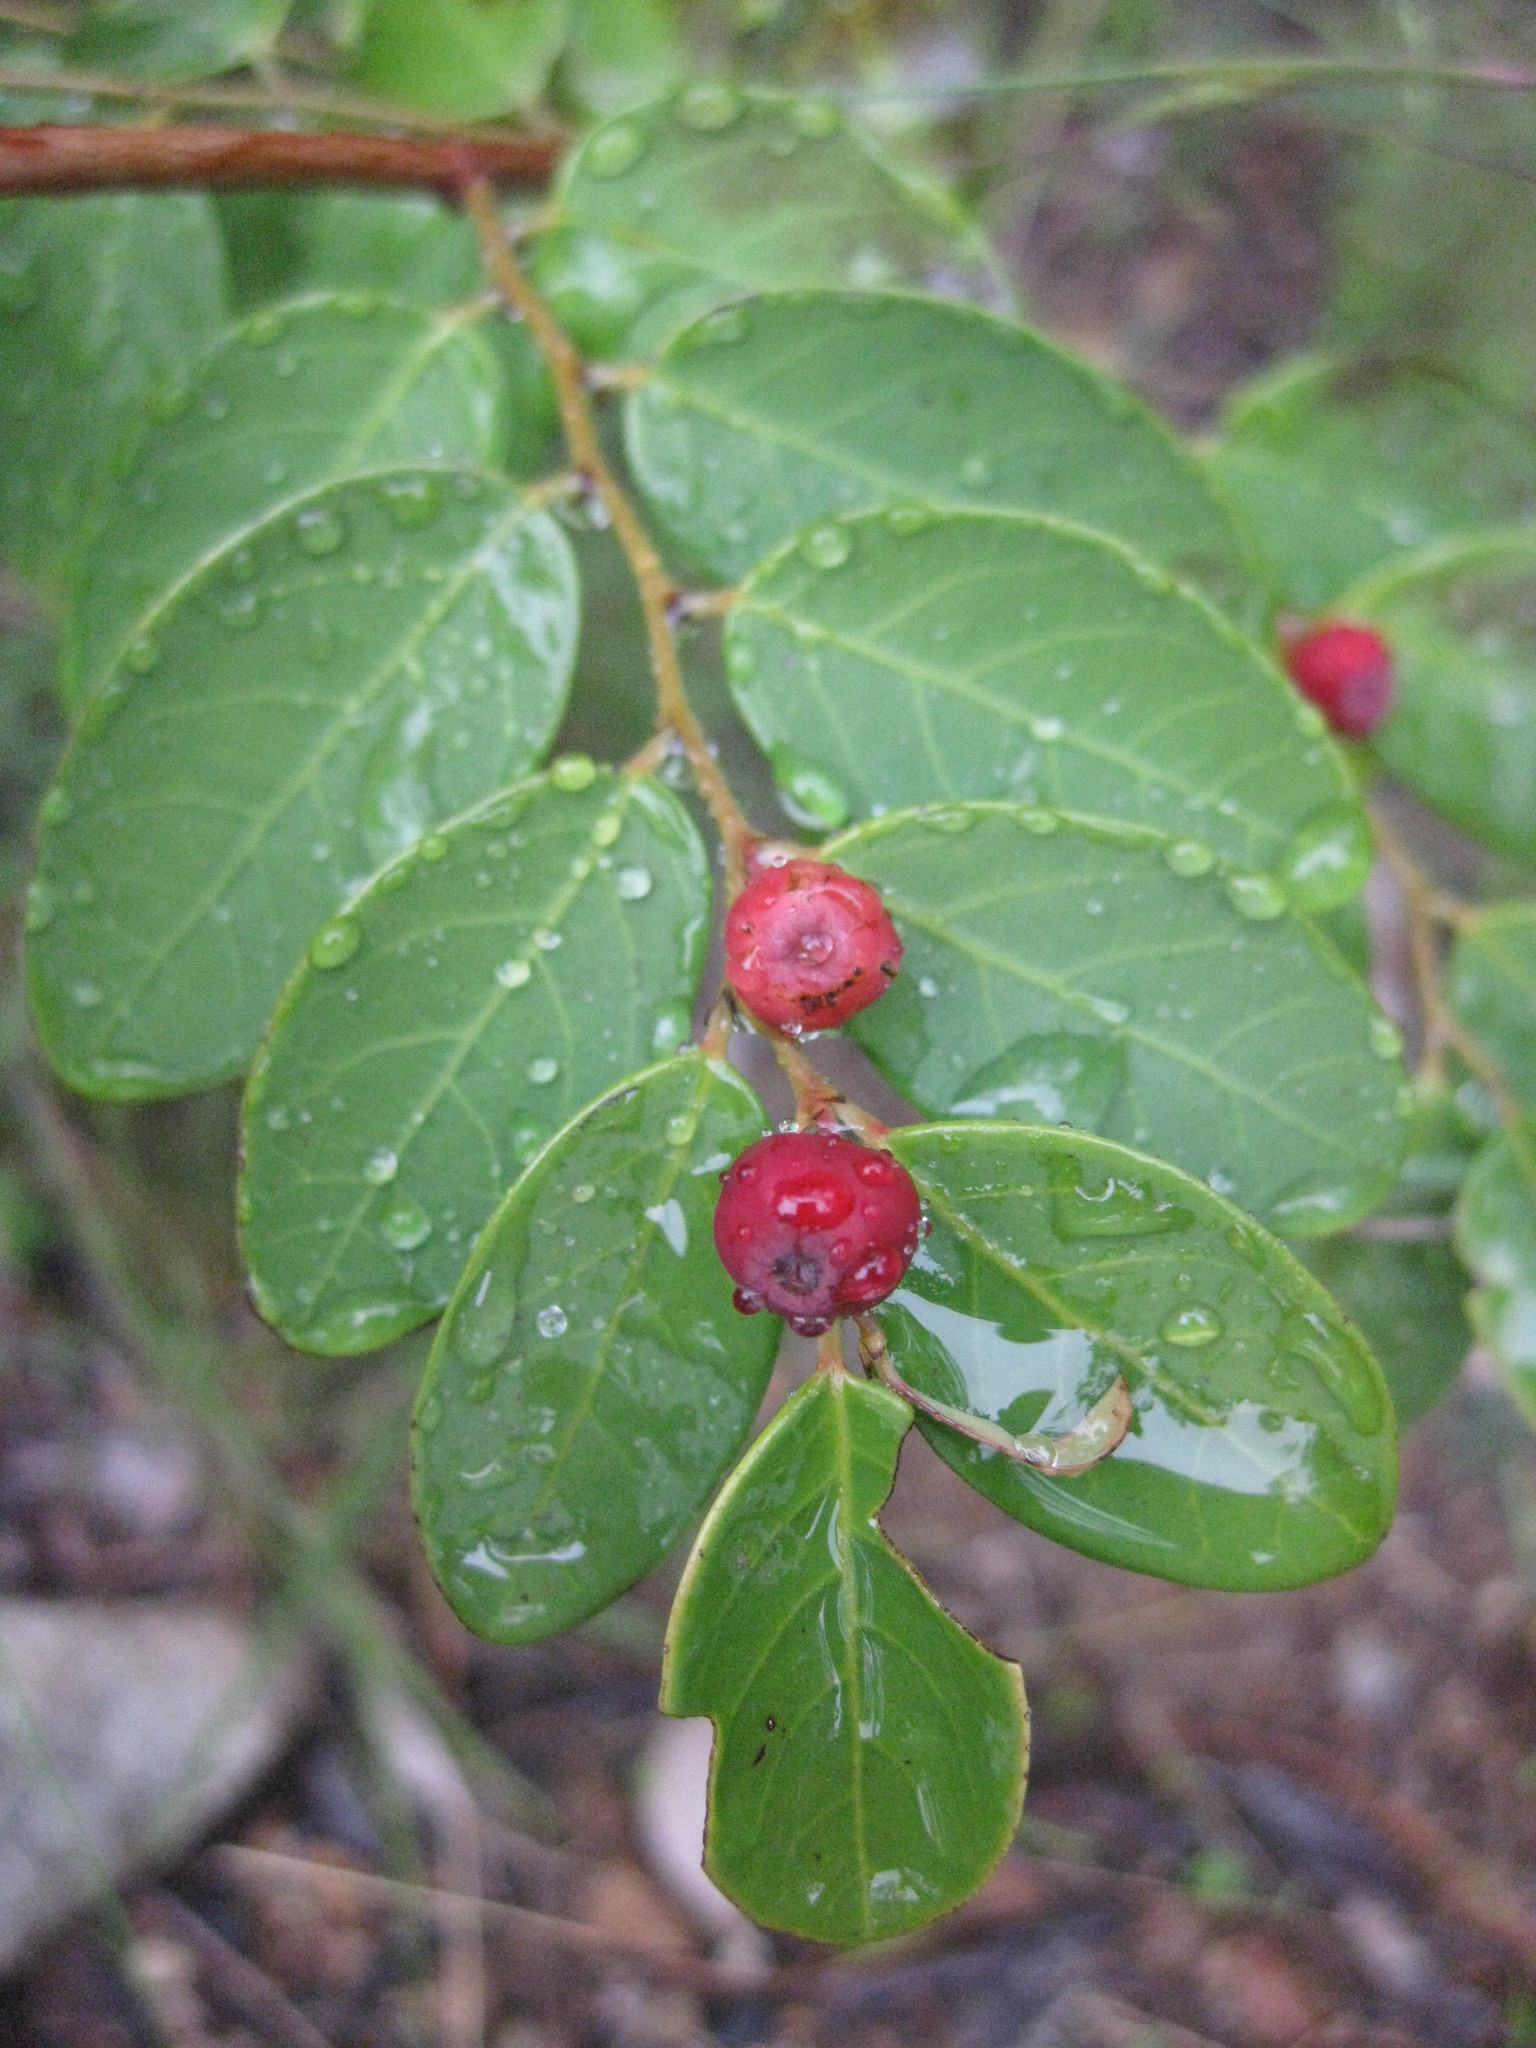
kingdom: Plantae
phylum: Tracheophyta
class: Magnoliopsida
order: Malpighiales
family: Phyllanthaceae
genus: Breynia
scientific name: Breynia oblongifolia
